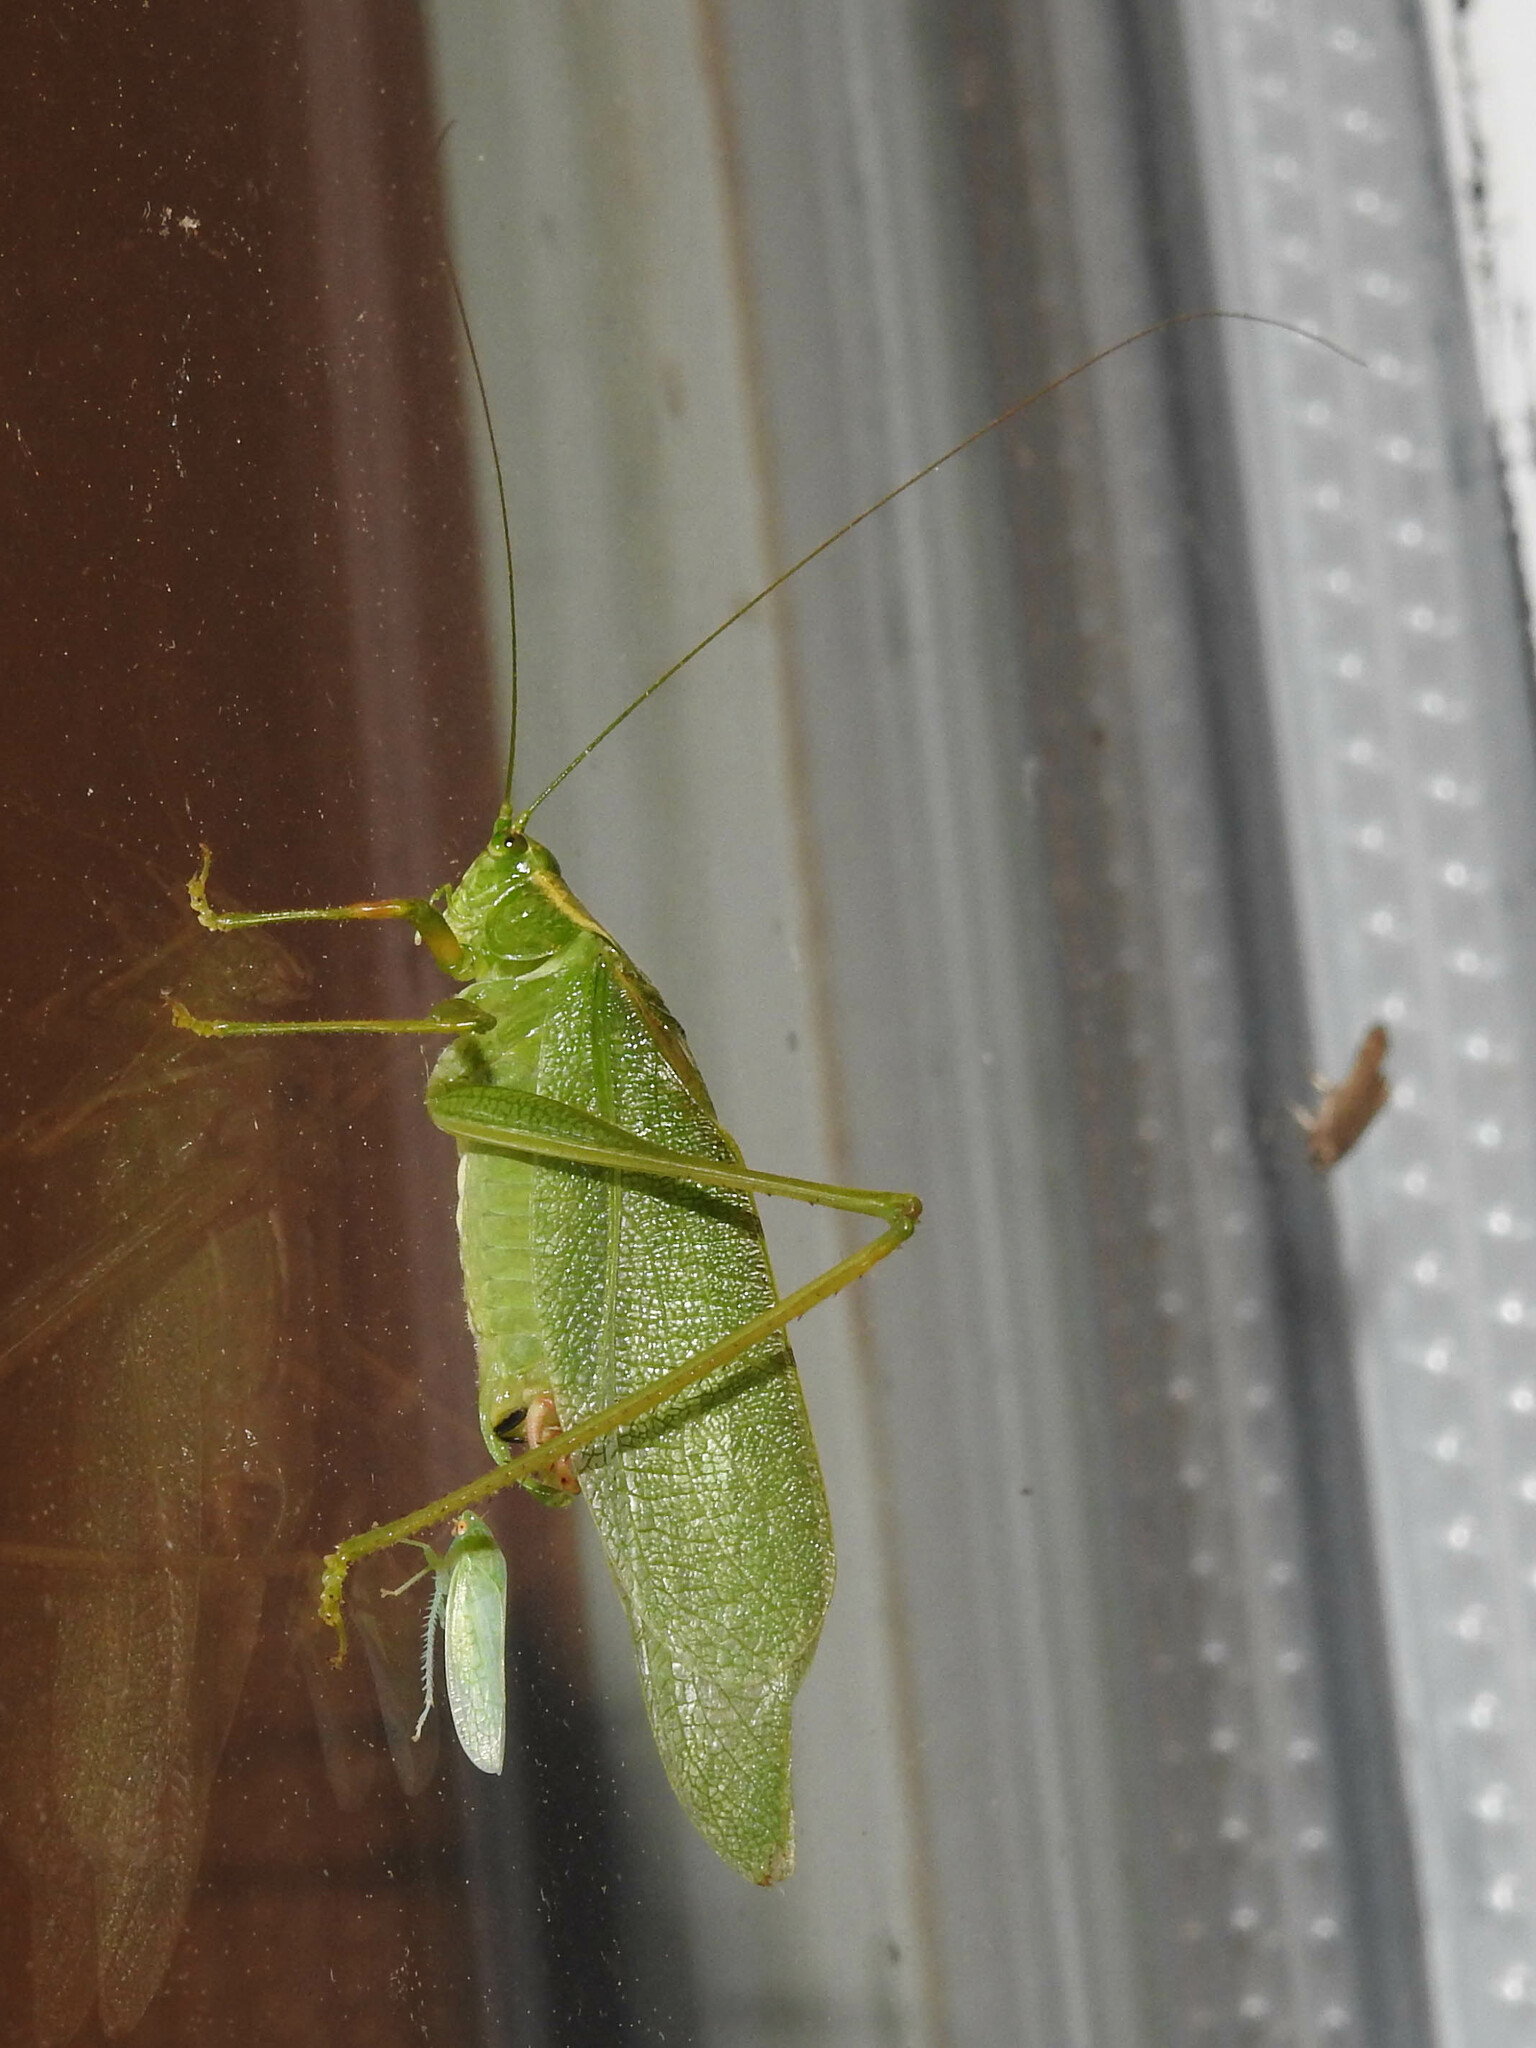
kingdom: Animalia
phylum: Arthropoda
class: Insecta
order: Orthoptera
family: Tettigoniidae
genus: Scudderia
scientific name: Scudderia septentrionalis
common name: Northern bush-katydid
